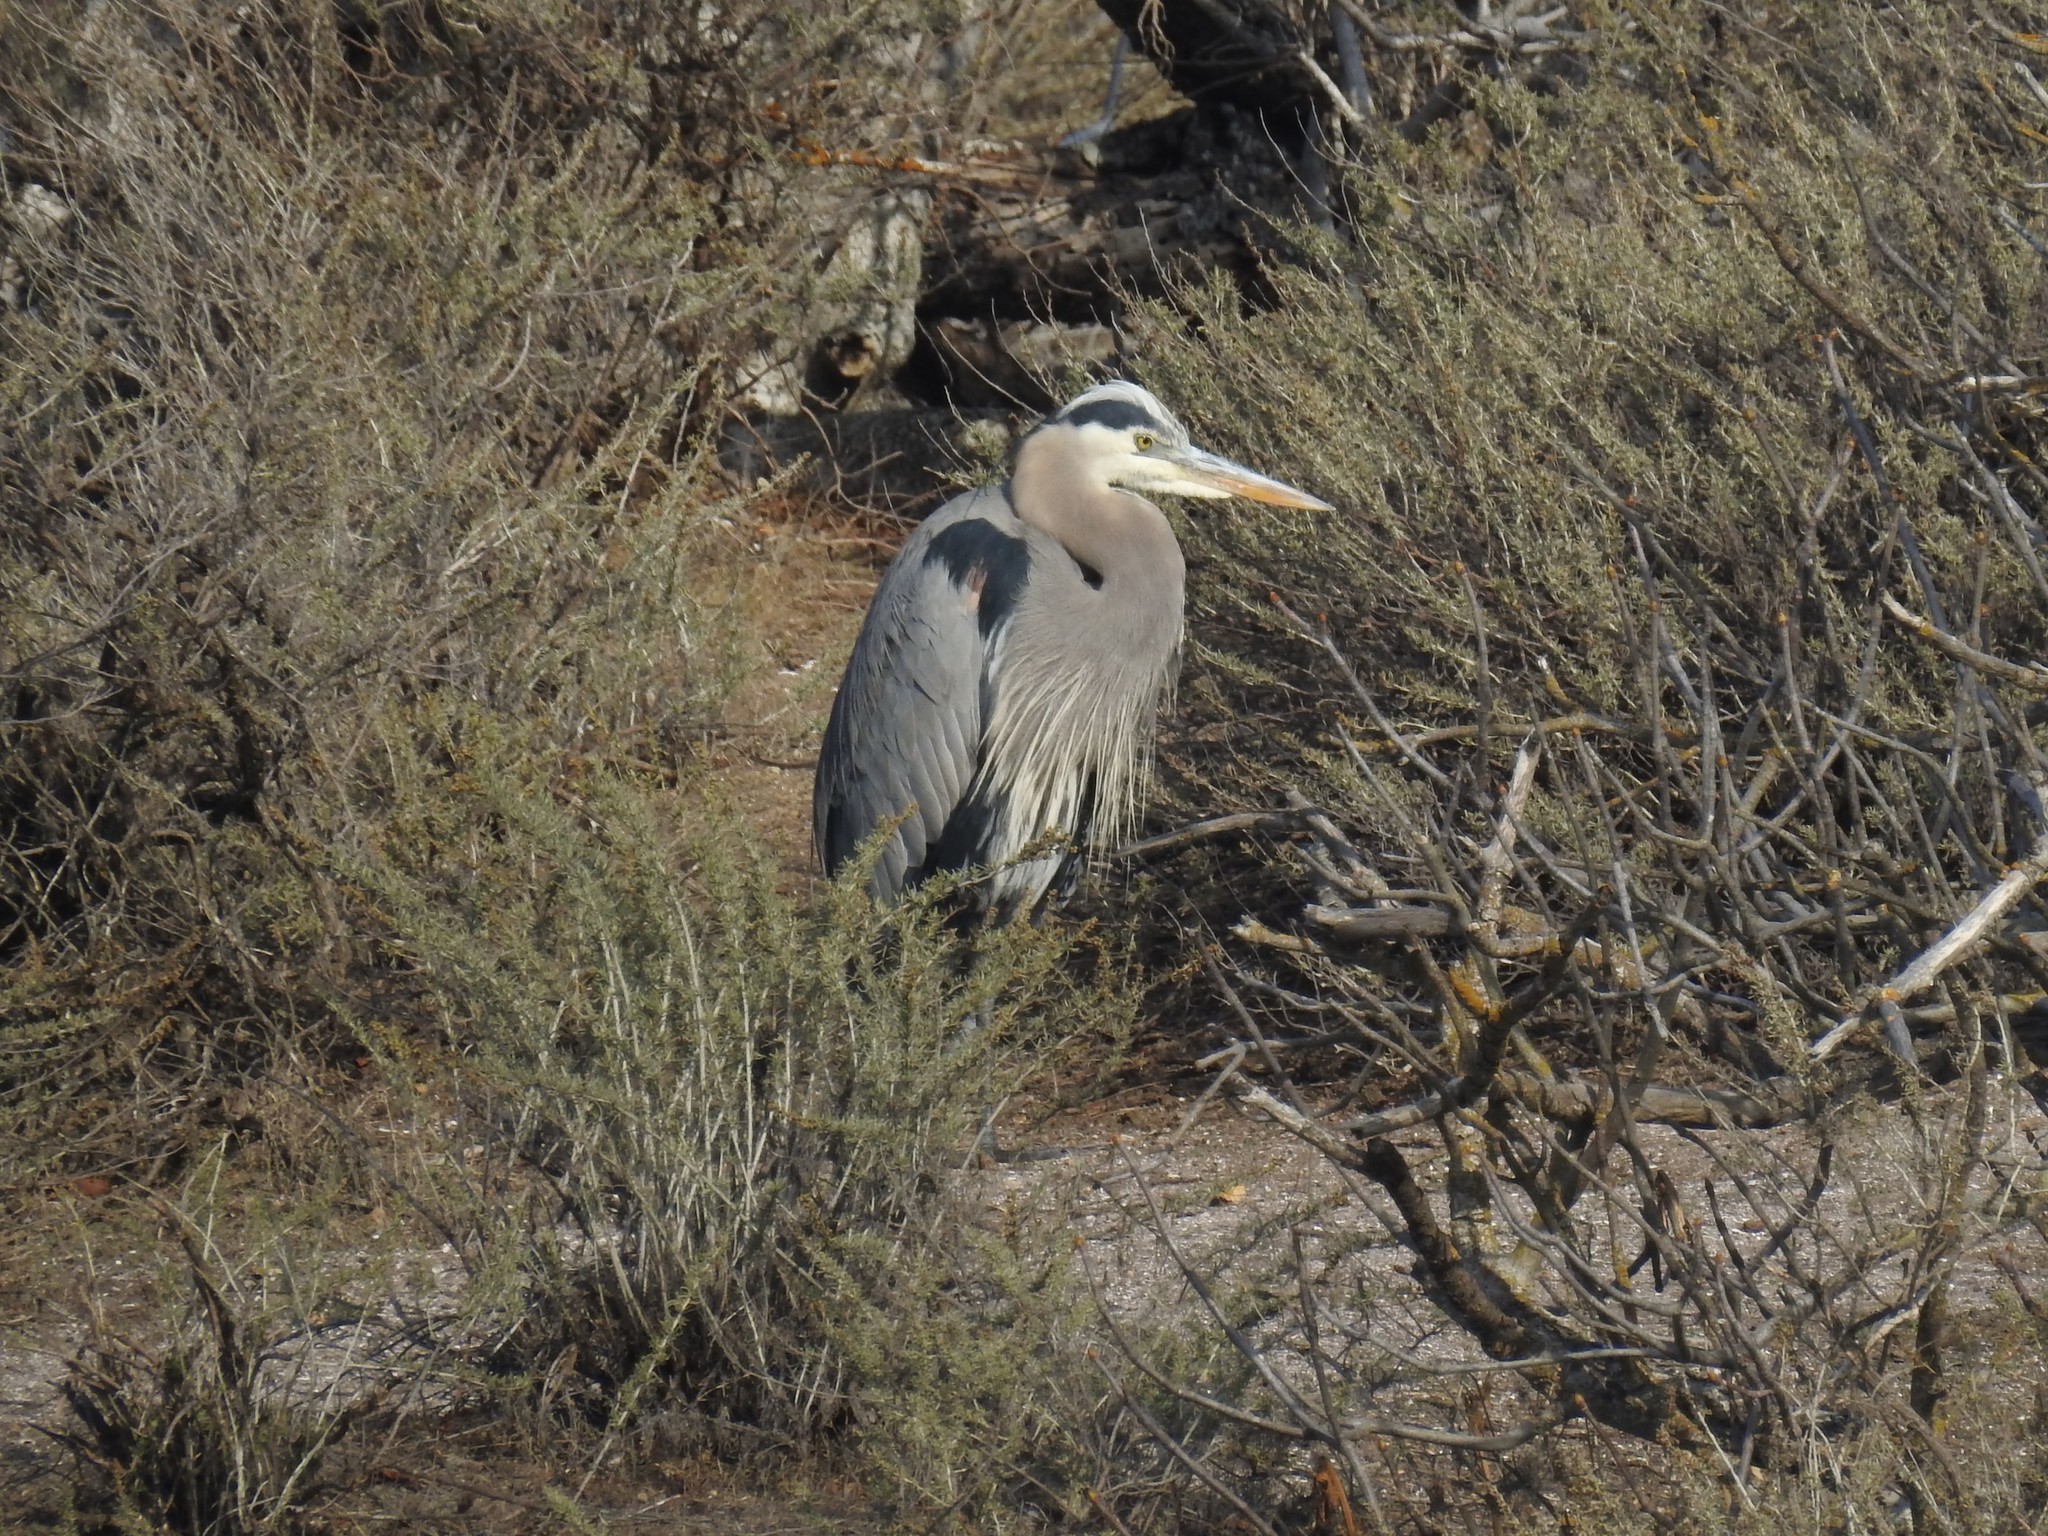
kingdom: Animalia
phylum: Chordata
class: Aves
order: Pelecaniformes
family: Ardeidae
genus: Ardea
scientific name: Ardea herodias
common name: Great blue heron
